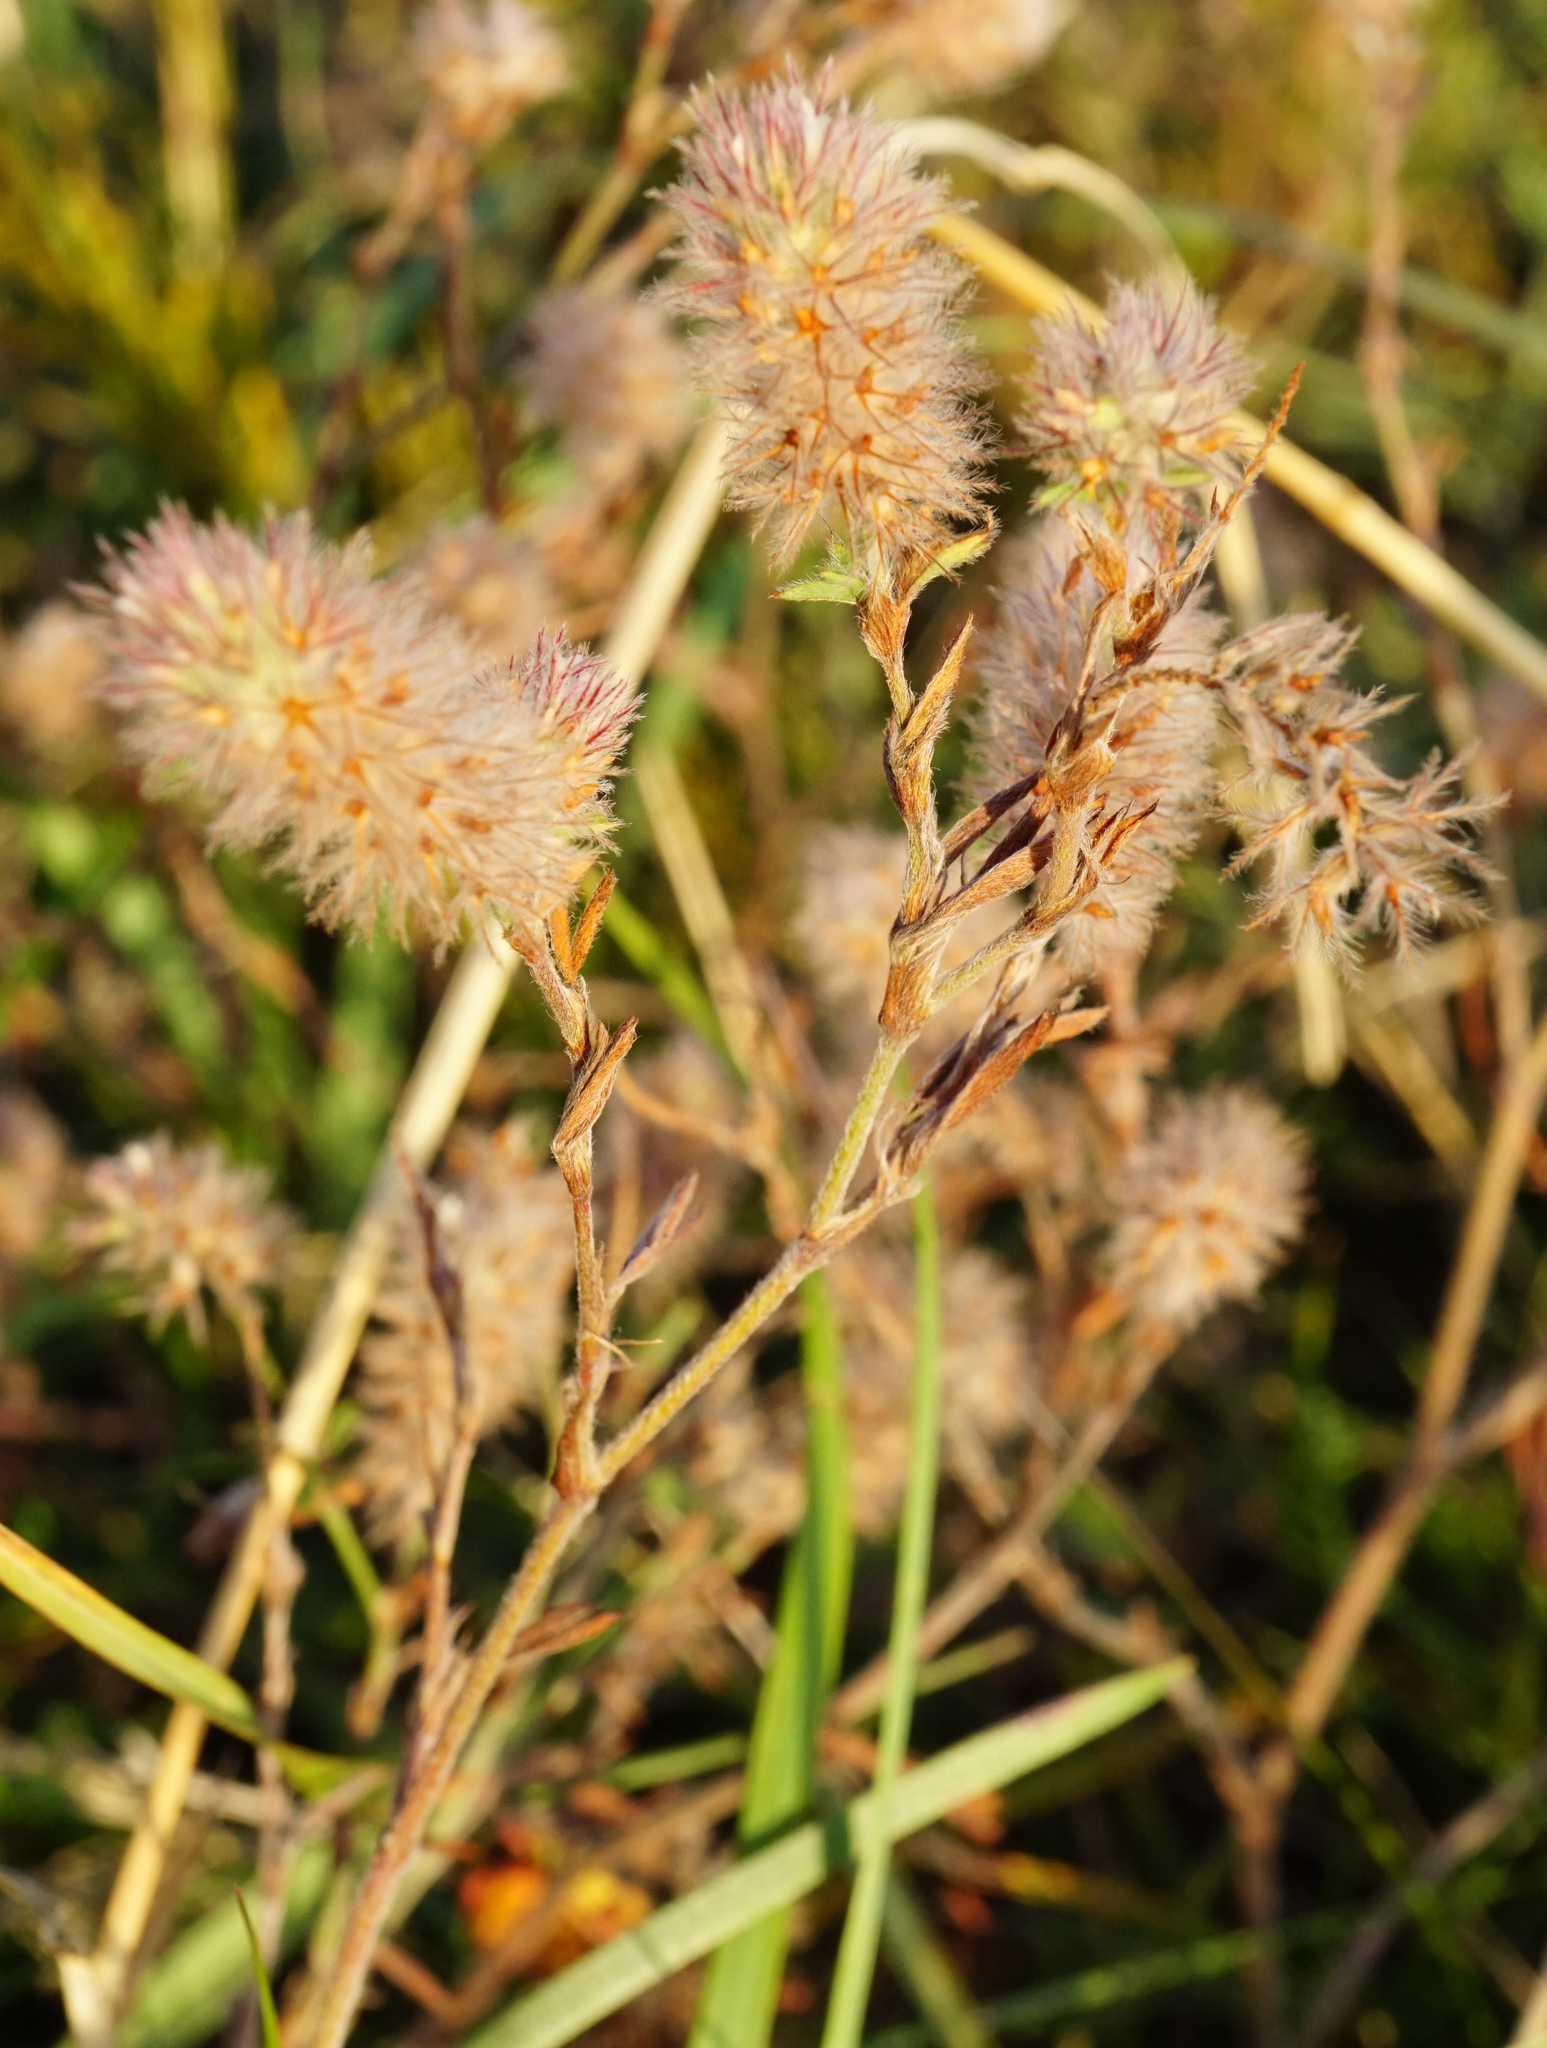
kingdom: Plantae
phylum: Tracheophyta
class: Magnoliopsida
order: Fabales
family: Fabaceae
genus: Trifolium
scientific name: Trifolium arvense
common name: Hare's-foot clover
